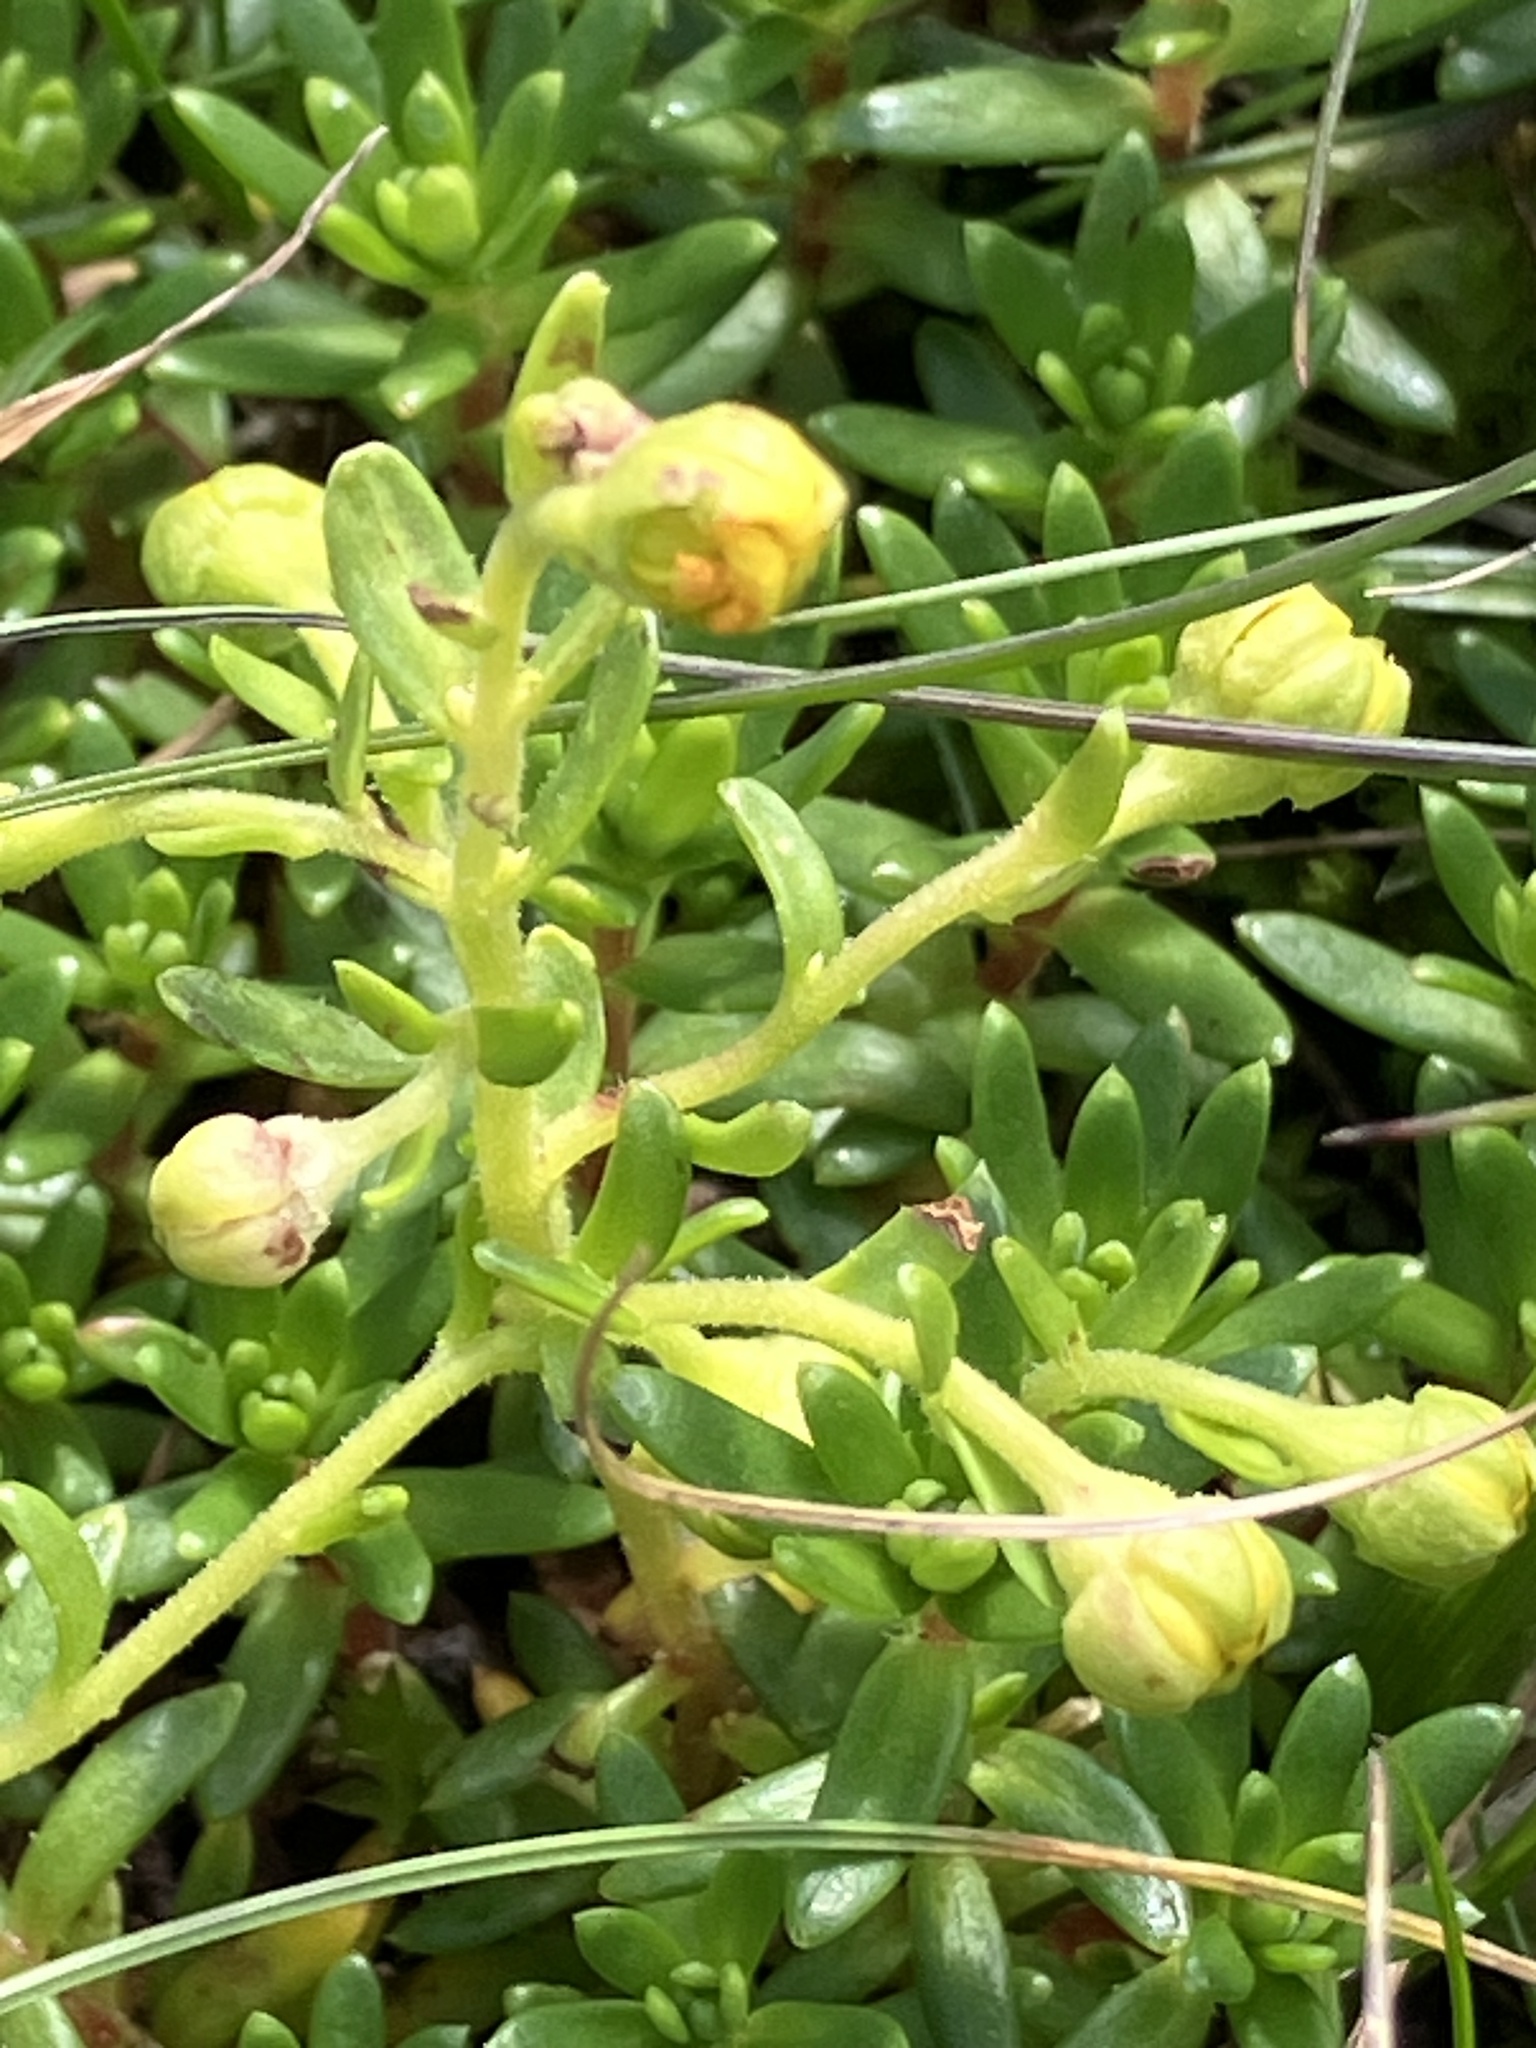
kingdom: Plantae
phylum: Tracheophyta
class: Magnoliopsida
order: Saxifragales
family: Saxifragaceae
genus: Saxifraga
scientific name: Saxifraga aizoides
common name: Yellow mountain saxifrage
